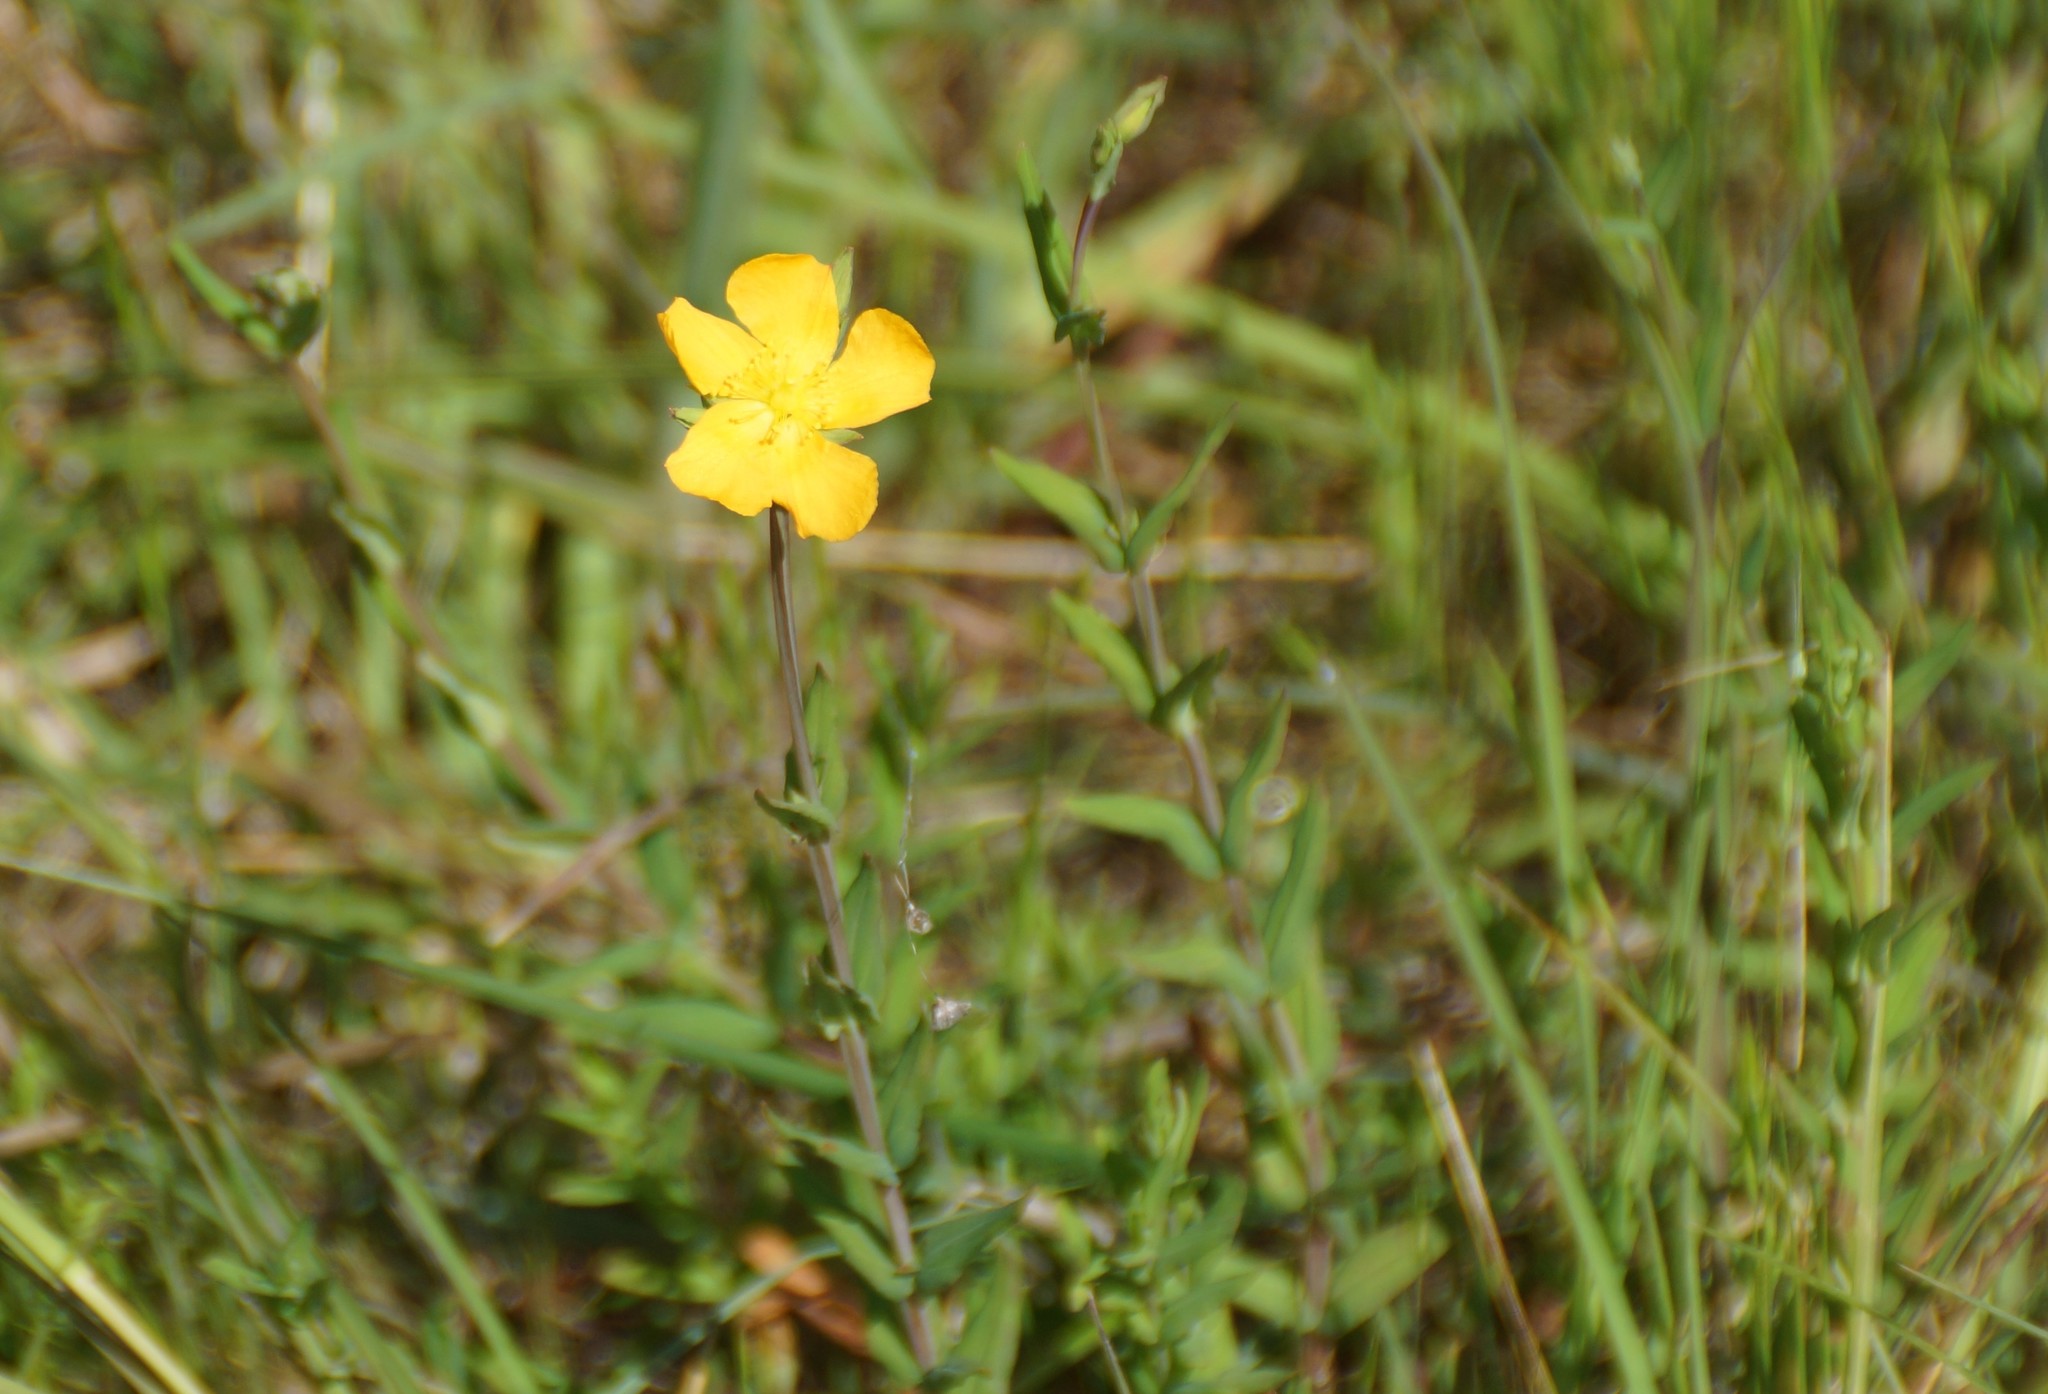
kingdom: Plantae
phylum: Tracheophyta
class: Magnoliopsida
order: Malpighiales
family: Hypericaceae
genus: Hypericum
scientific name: Hypericum gramineum
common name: Grassy st. johnswort
